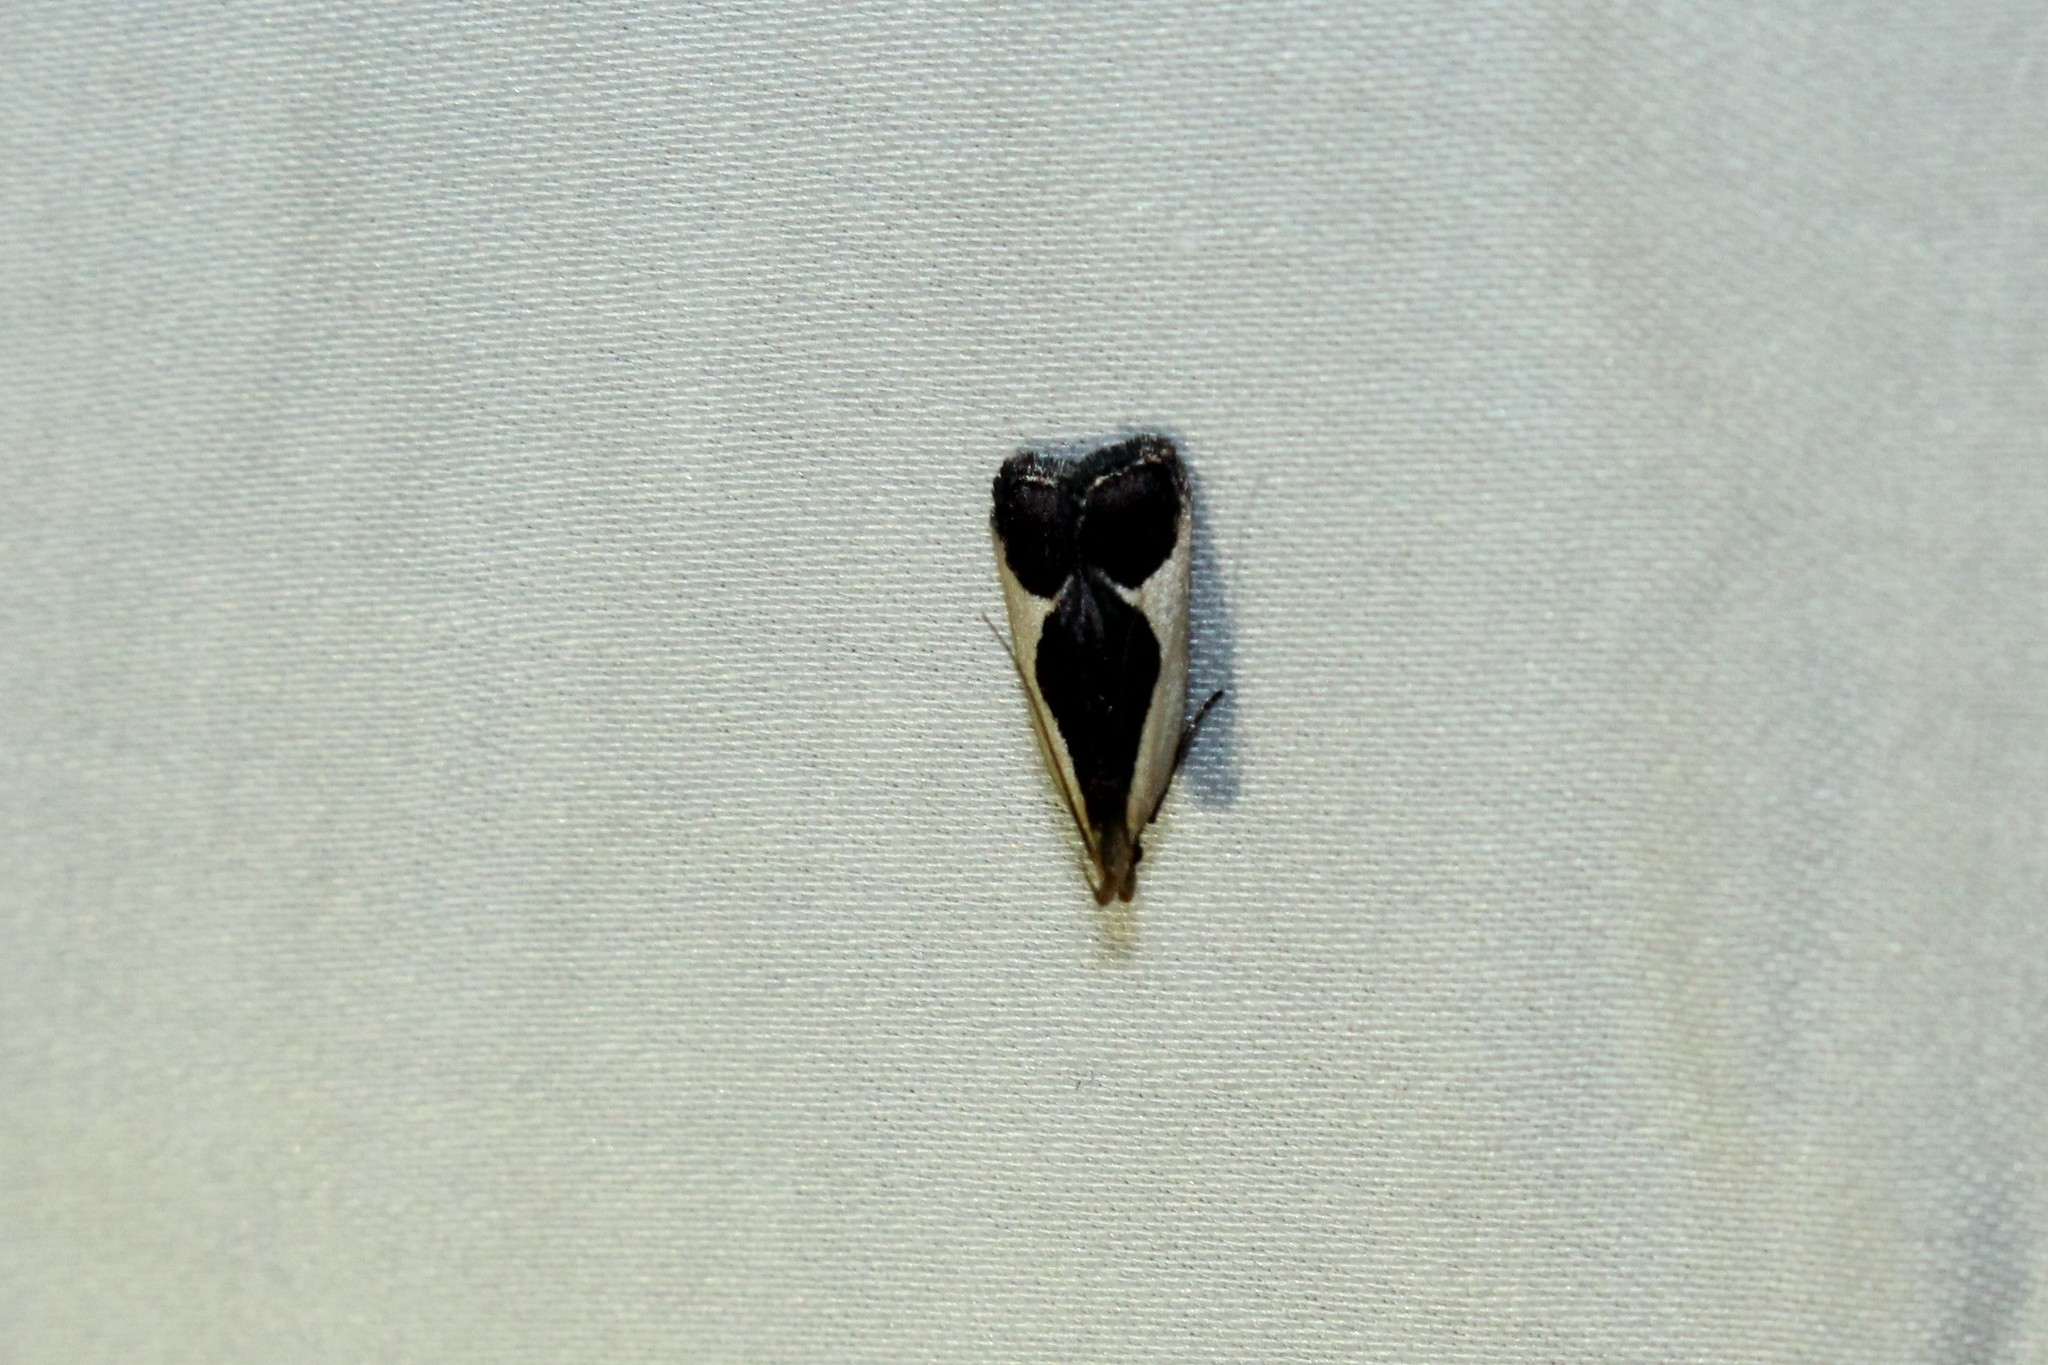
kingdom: Animalia
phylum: Arthropoda
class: Insecta
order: Lepidoptera
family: Gelechiidae
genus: Dichomeris
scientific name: Dichomeris flavocostella
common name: Cream-edged dichomeris moth
